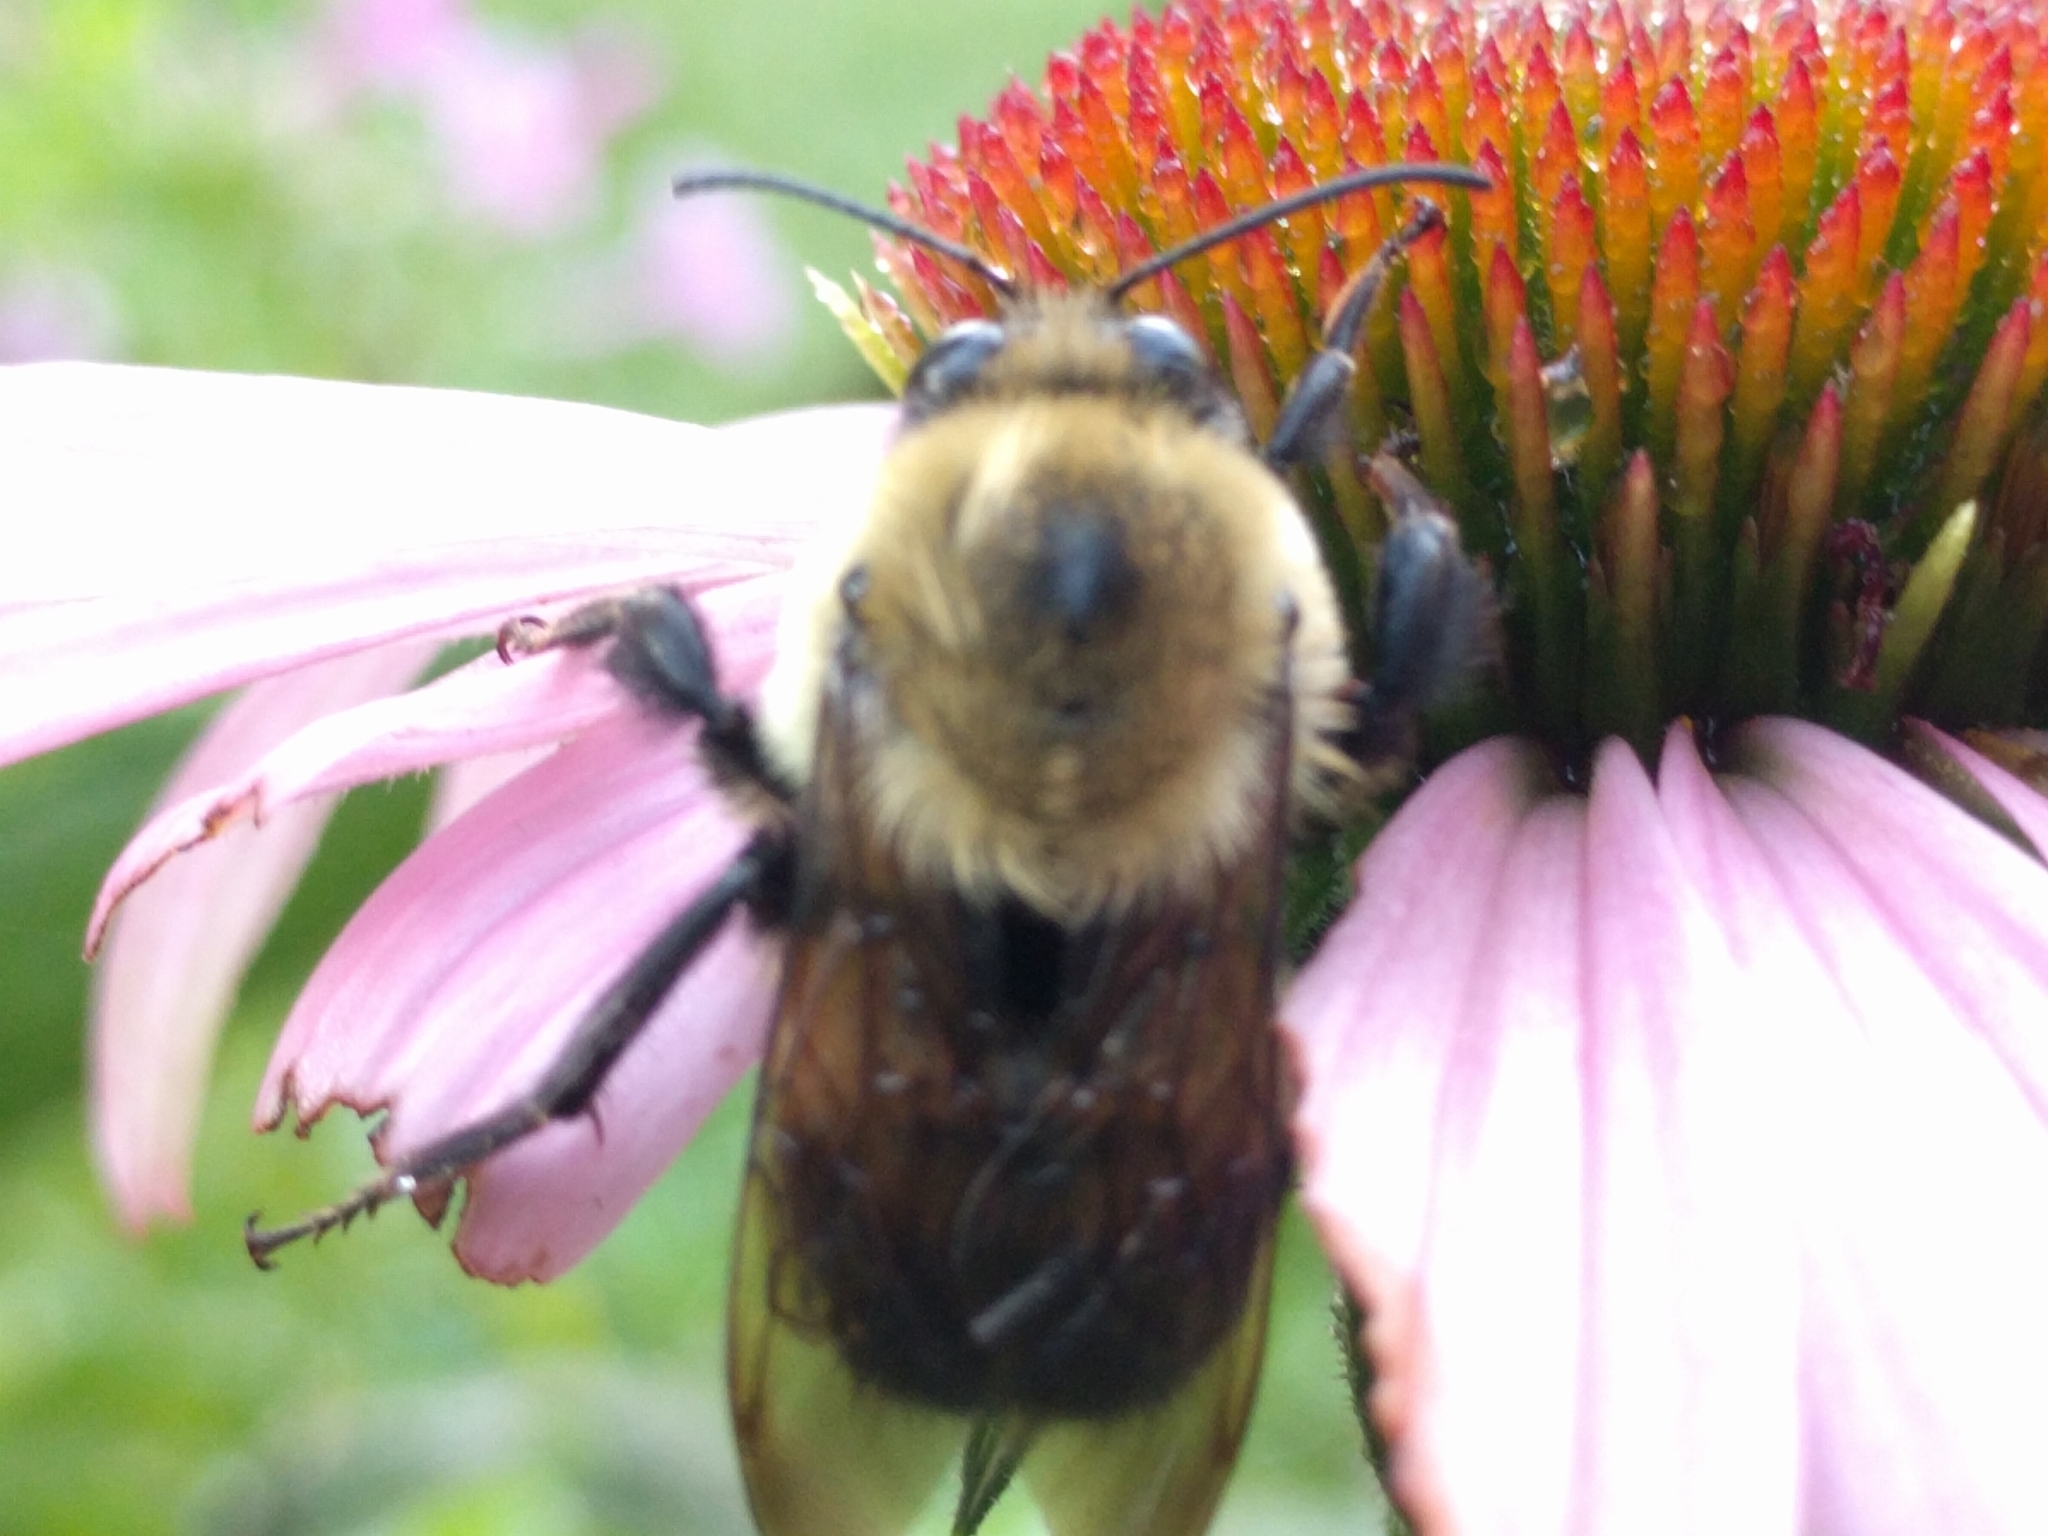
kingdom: Animalia
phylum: Arthropoda
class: Insecta
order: Hymenoptera
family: Apidae
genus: Bombus
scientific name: Bombus griseocollis
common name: Brown-belted bumble bee
